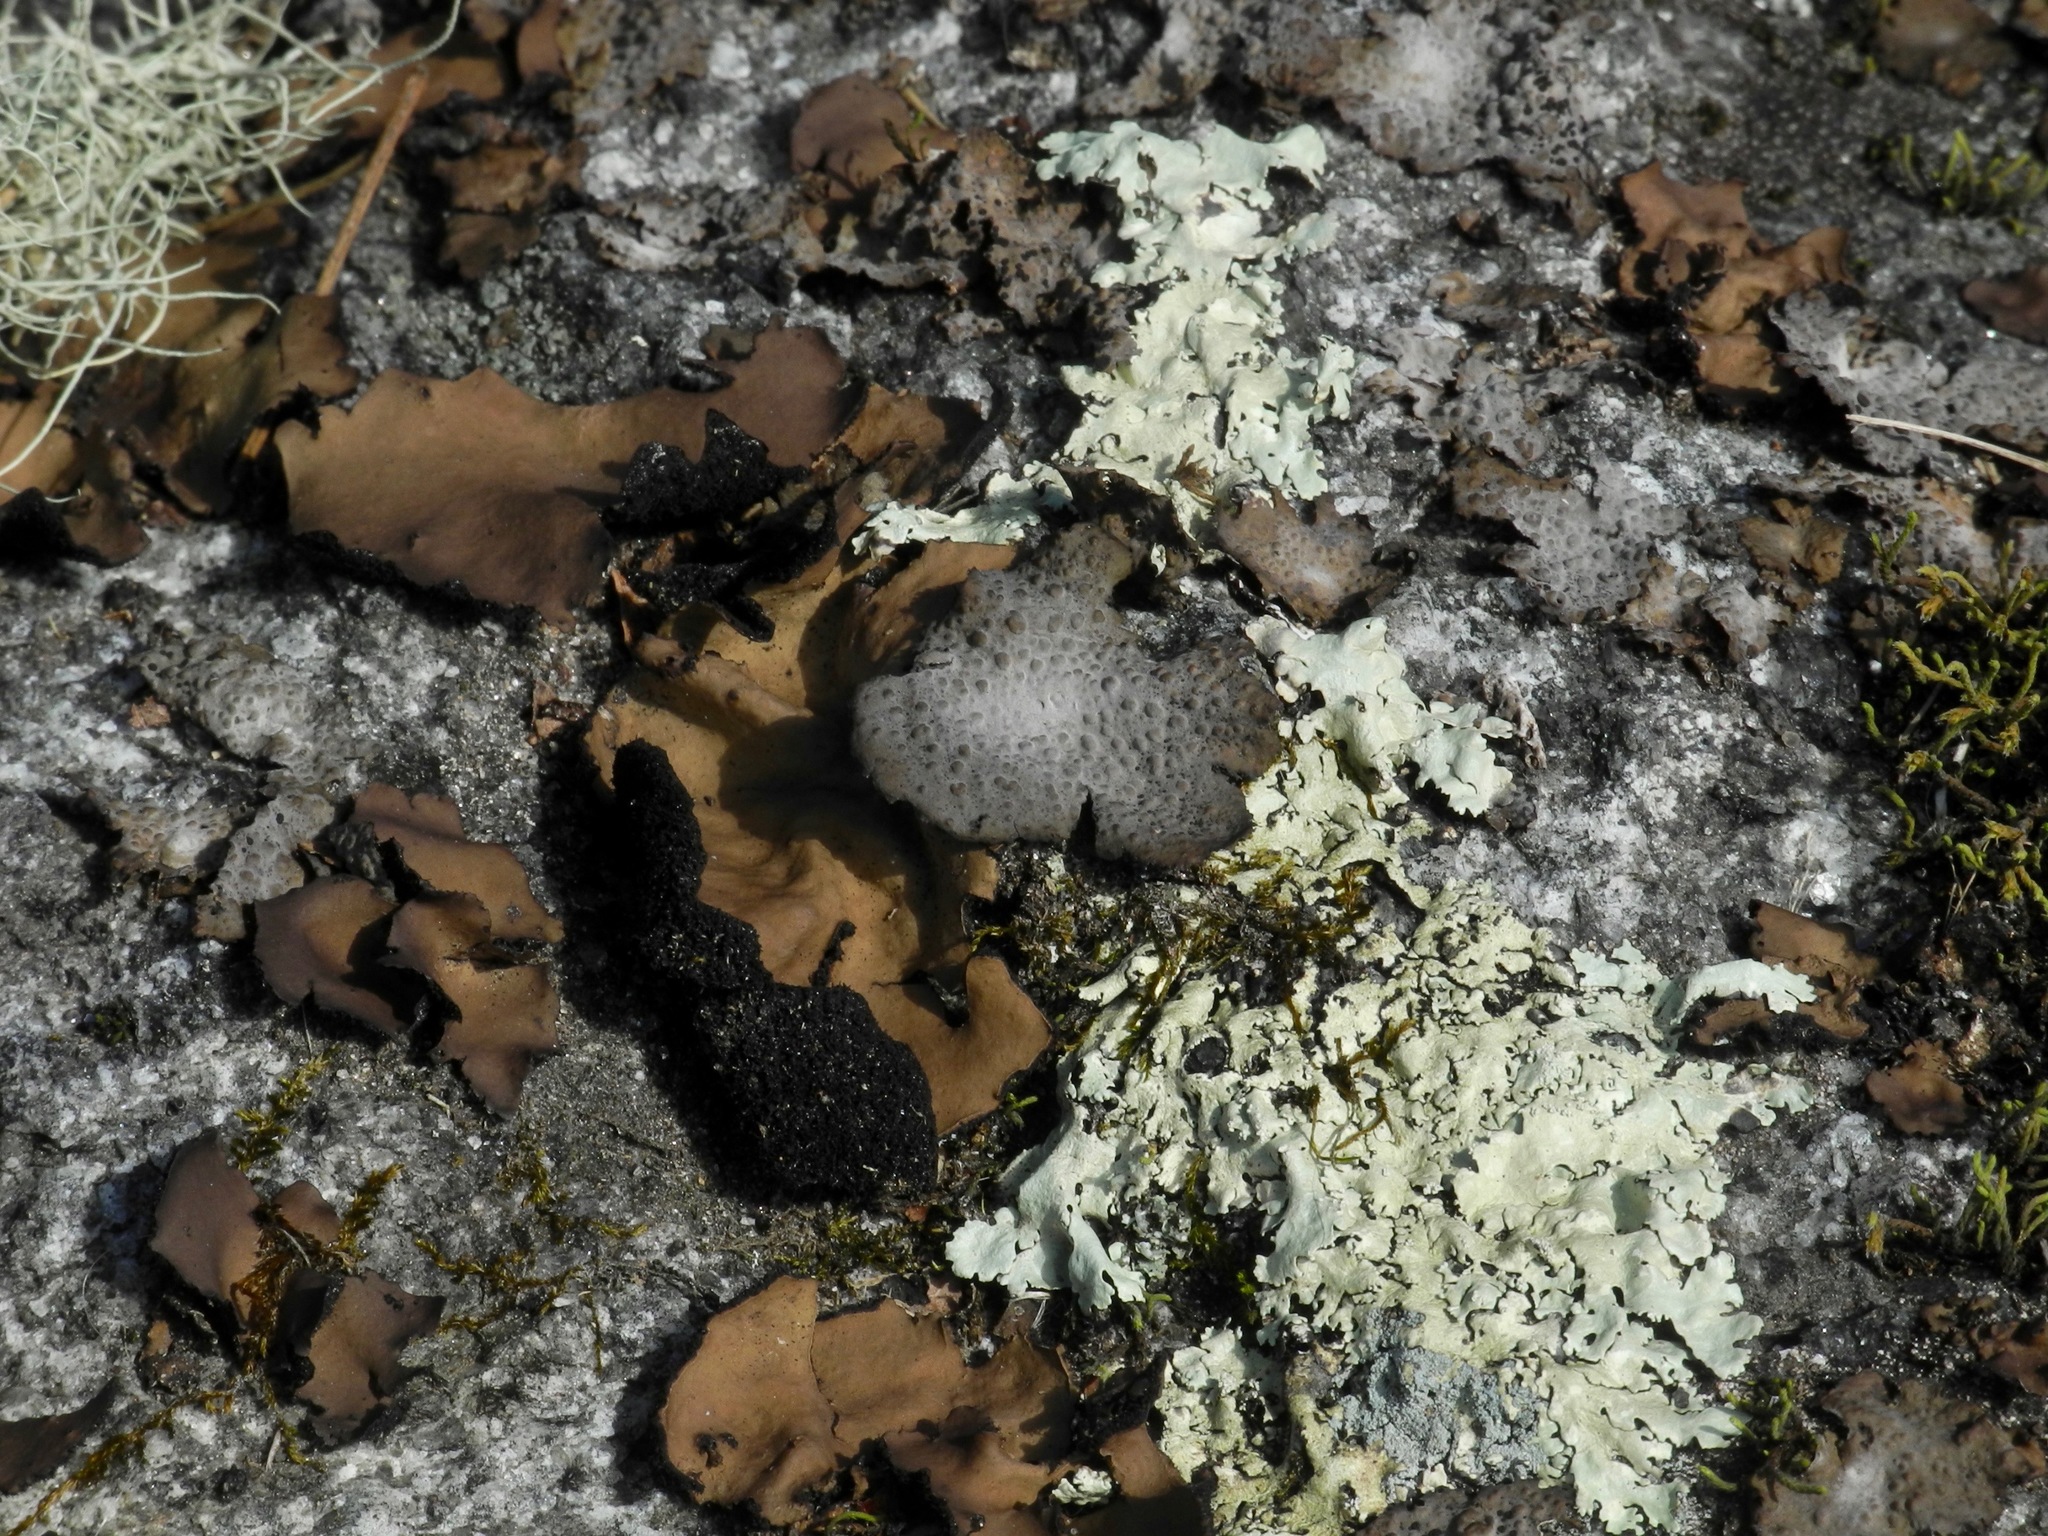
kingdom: Fungi
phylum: Ascomycota
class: Lecanoromycetes
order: Umbilicariales
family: Umbilicariaceae
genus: Lasallia
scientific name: Lasallia papulosa
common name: Common toadskin lichen
